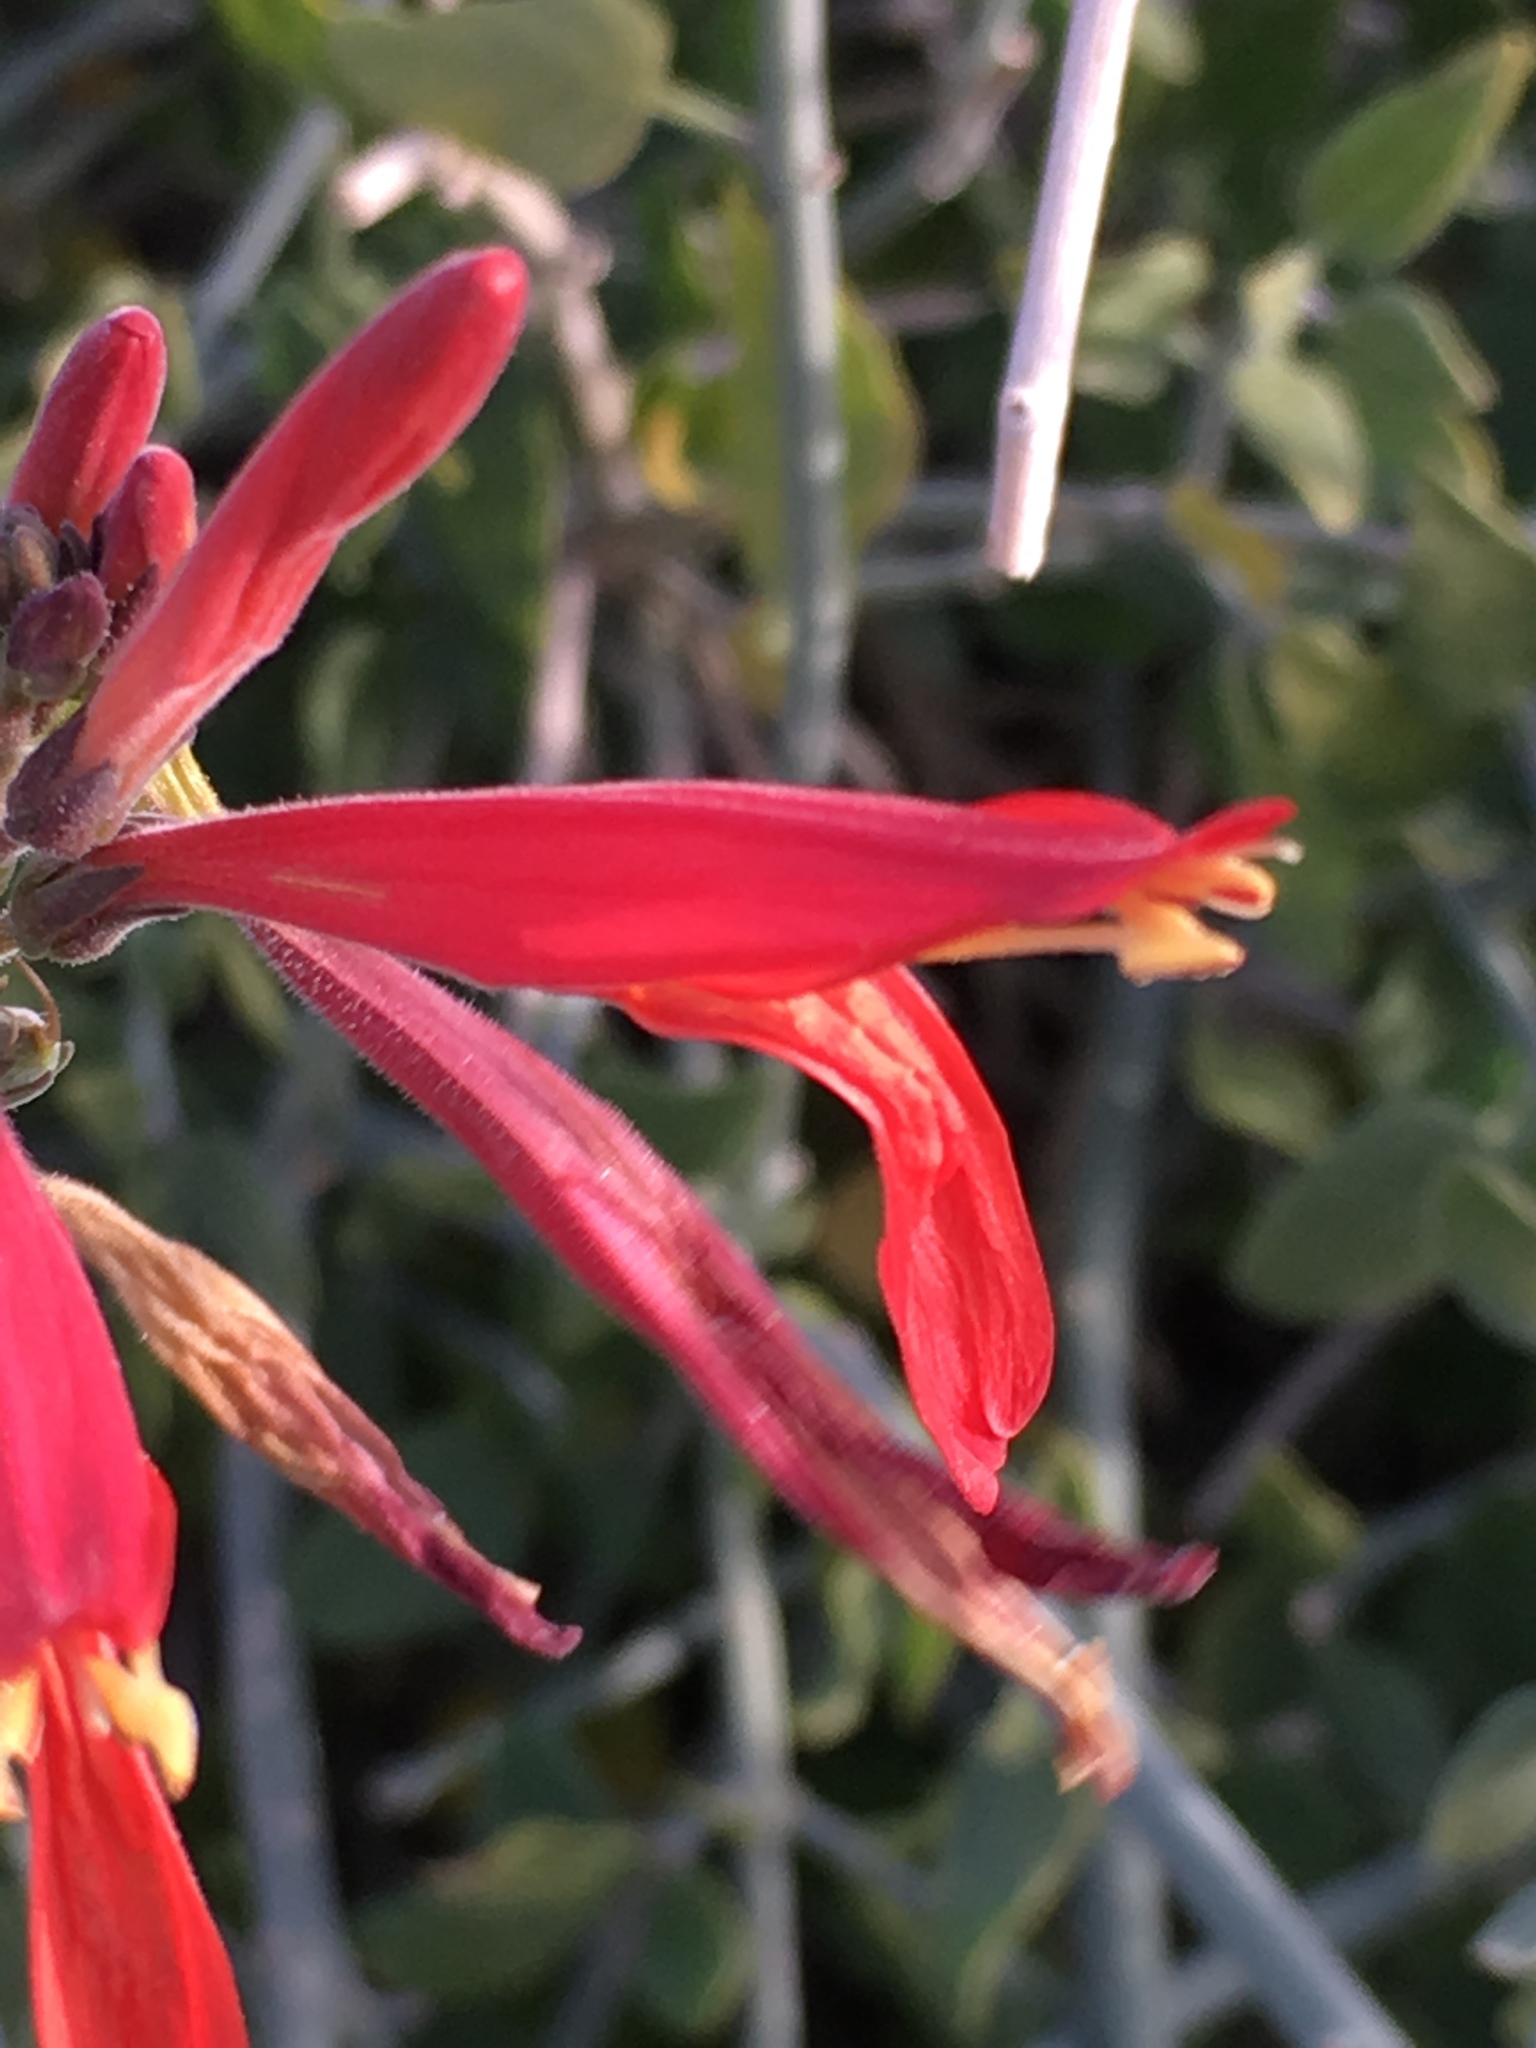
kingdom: Plantae
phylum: Tracheophyta
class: Magnoliopsida
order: Lamiales
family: Acanthaceae
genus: Justicia
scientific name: Justicia californica
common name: Chuparosa-honeysuckle
